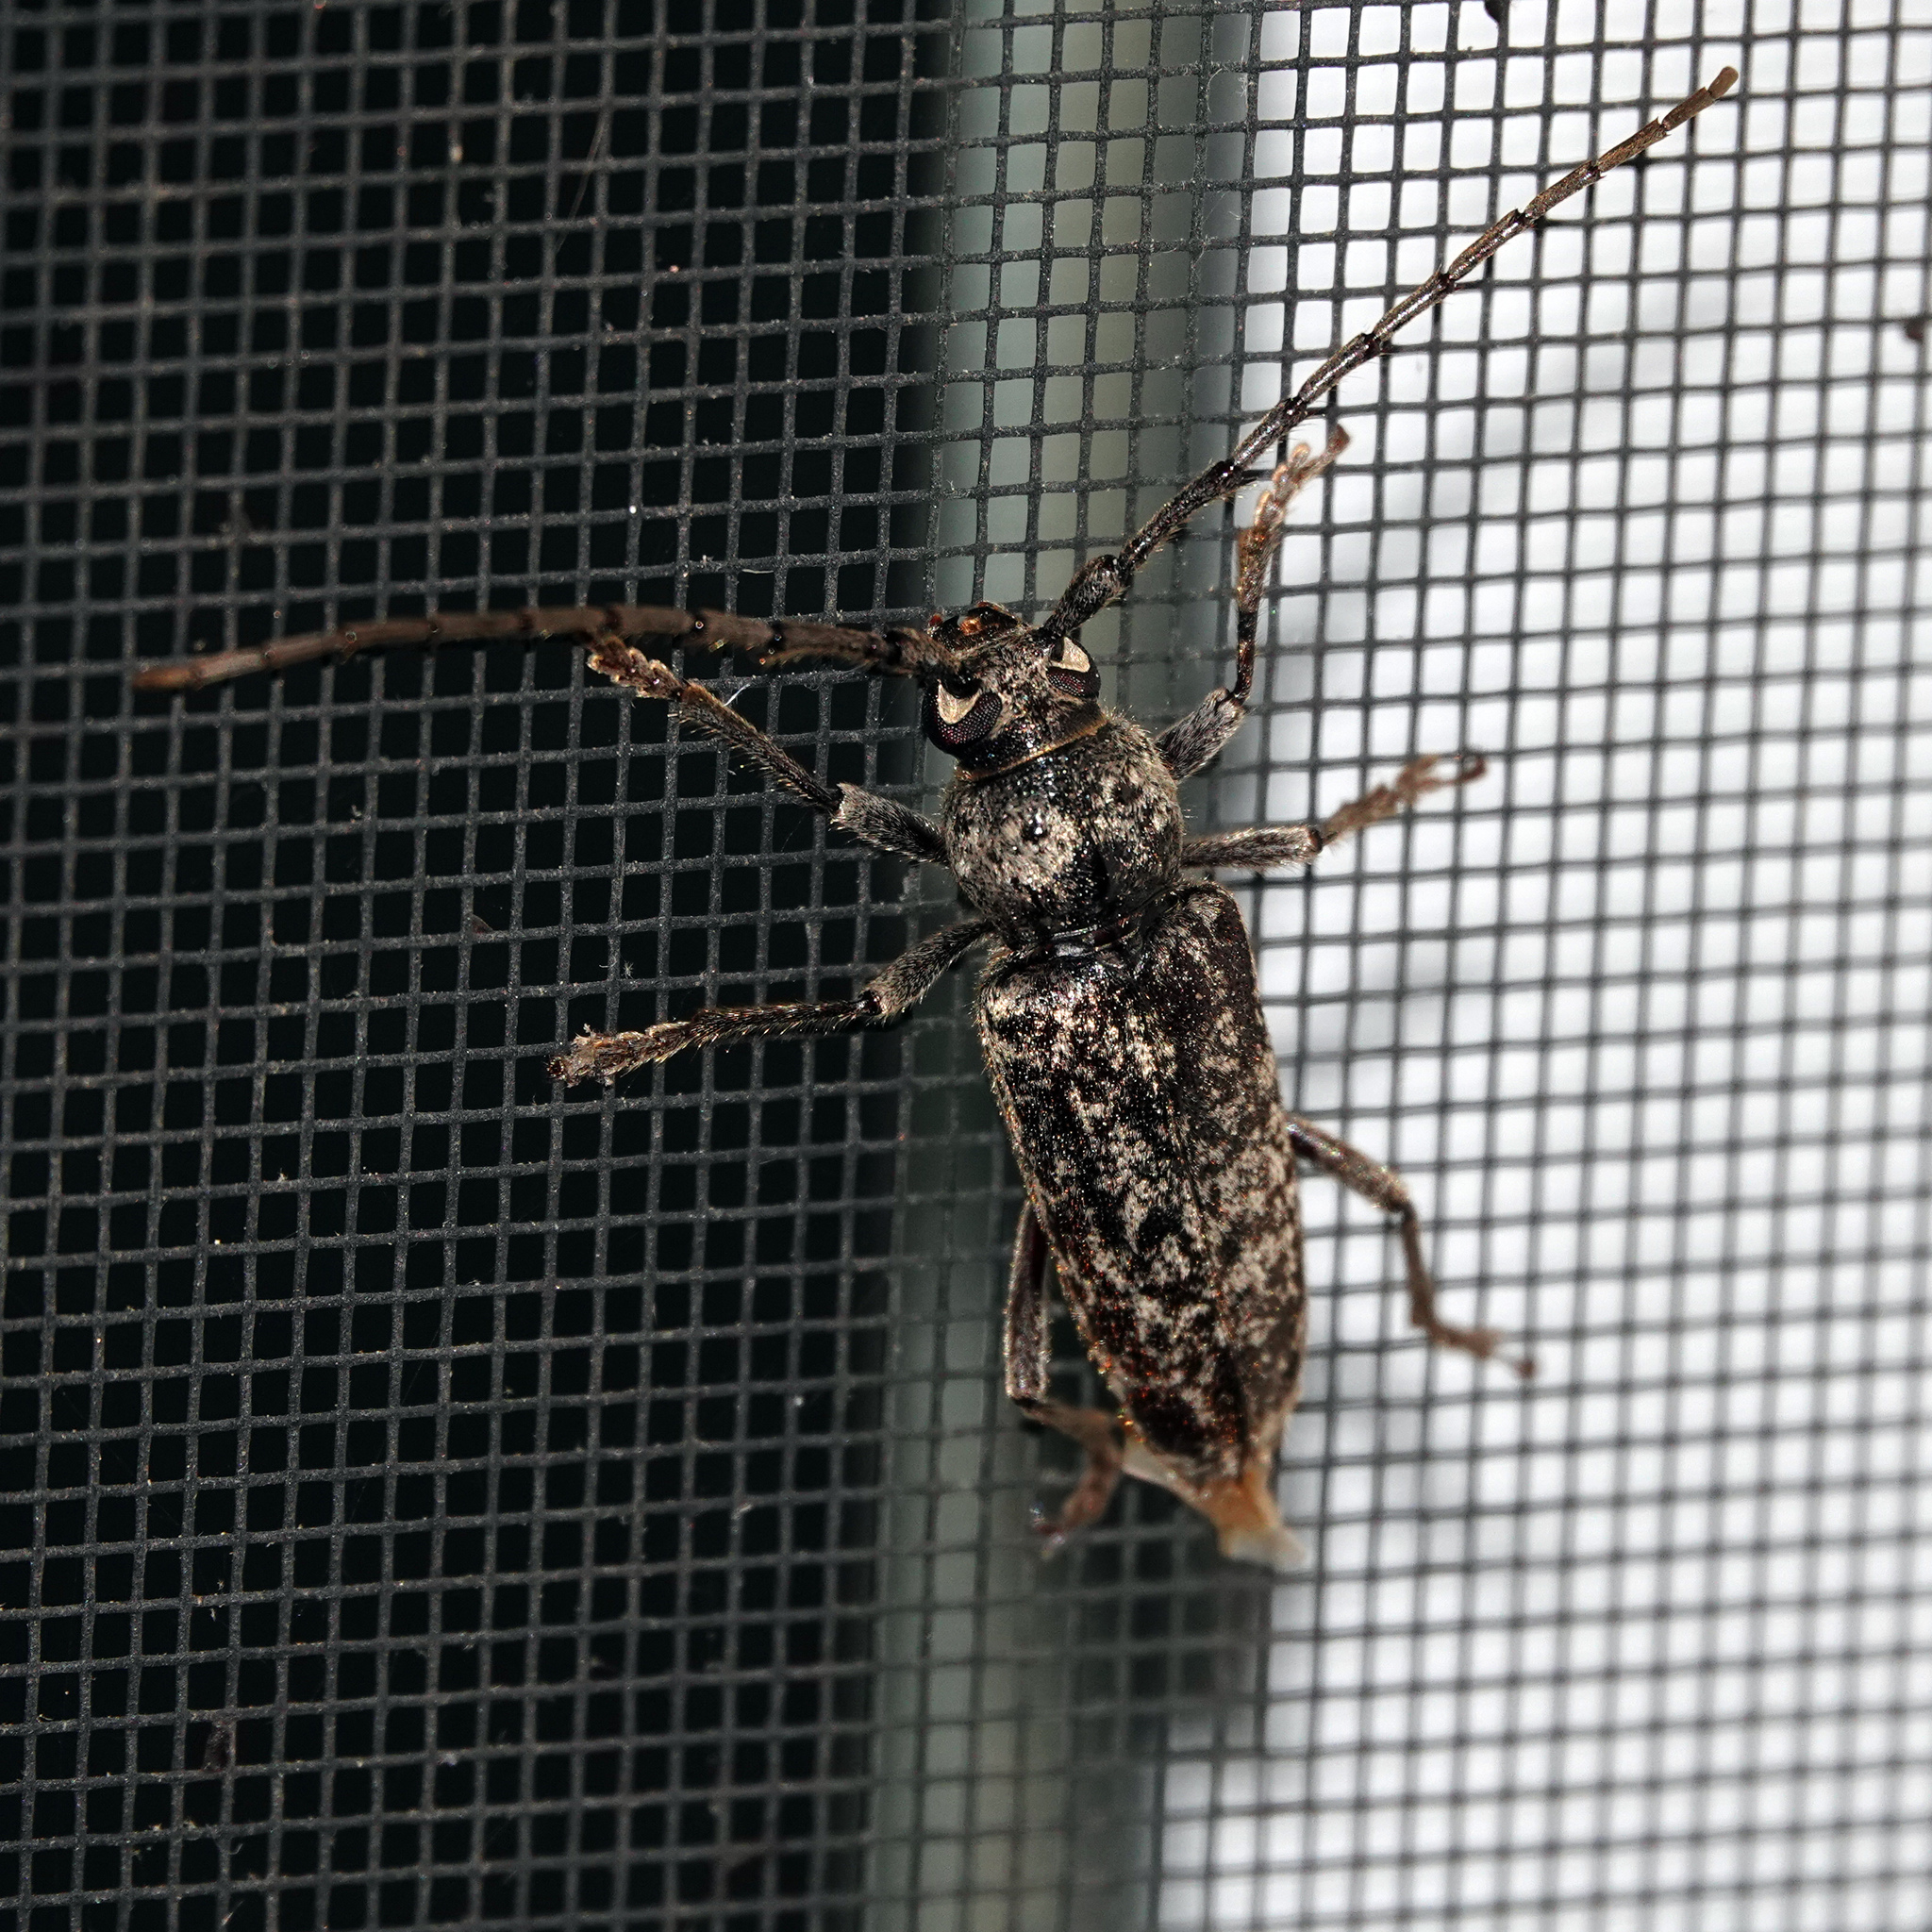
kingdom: Animalia
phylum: Arthropoda
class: Insecta
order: Coleoptera
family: Cerambycidae
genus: Enaphalodes
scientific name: Enaphalodes atomarius
